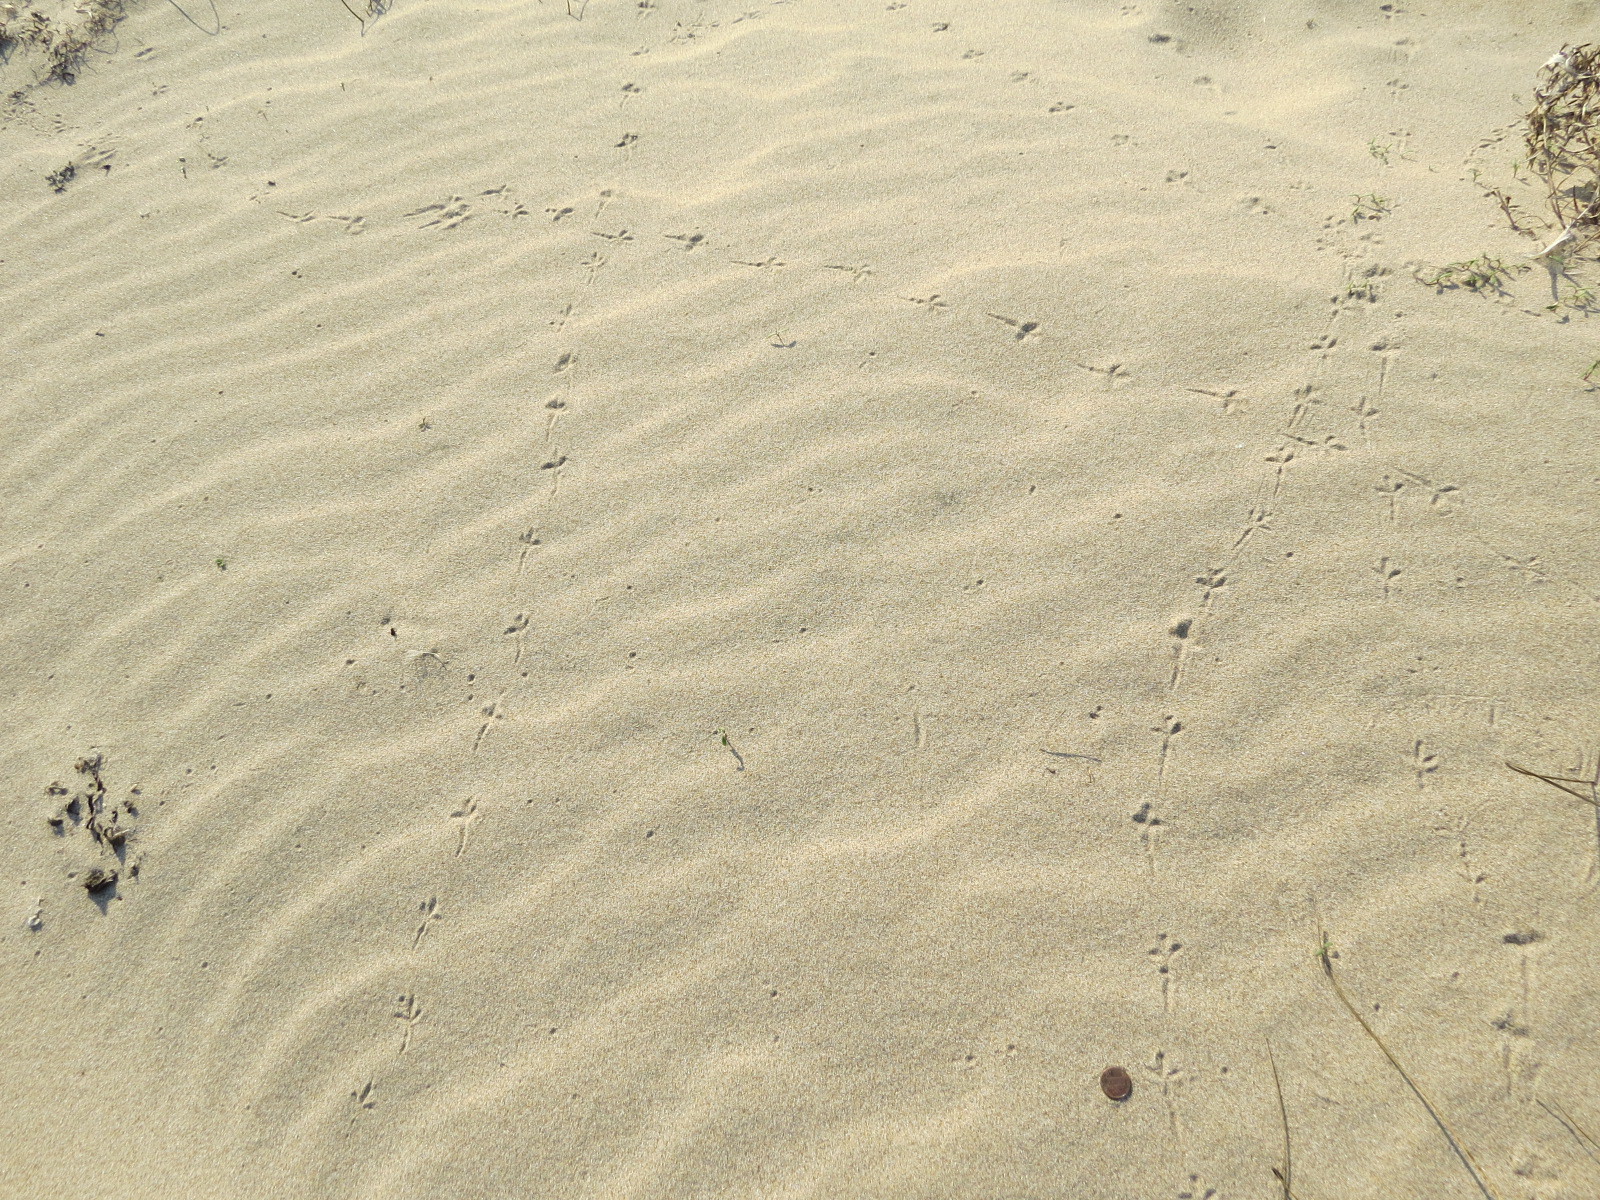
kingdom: Animalia
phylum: Chordata
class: Aves
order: Passeriformes
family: Motacillidae
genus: Anthus
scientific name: Anthus rubescens
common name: Buff-bellied pipit
